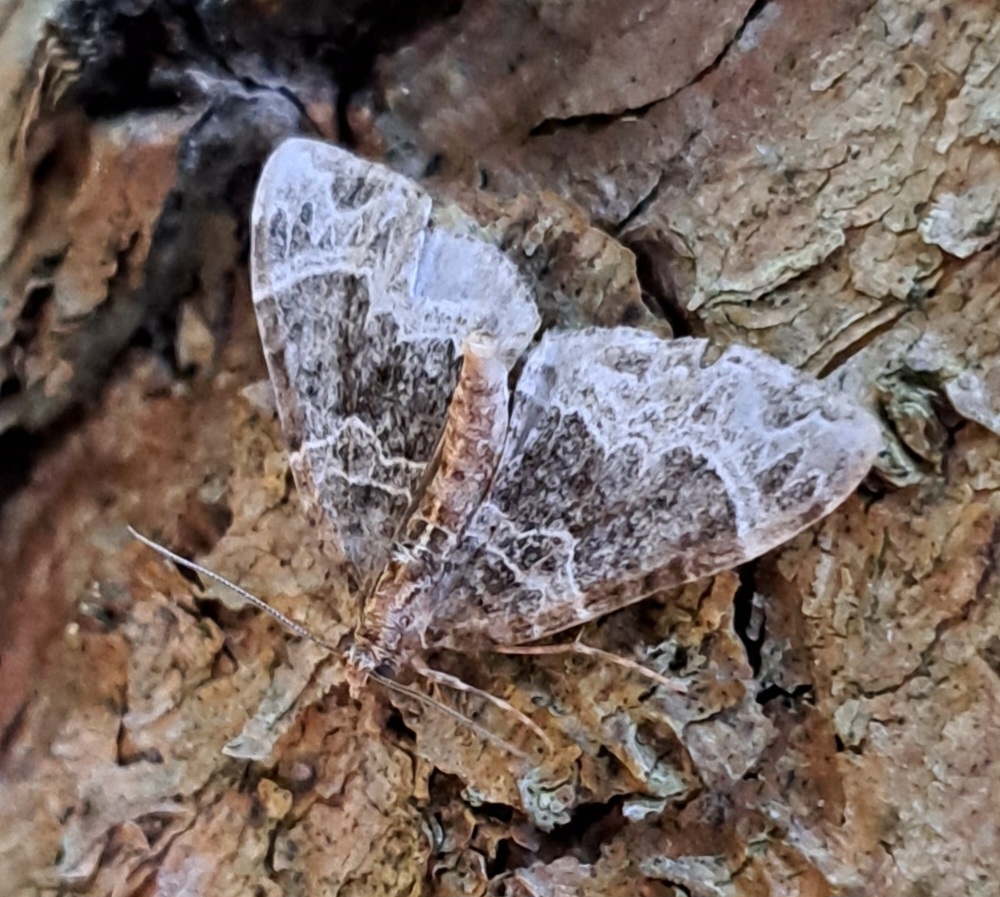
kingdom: Animalia
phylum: Arthropoda
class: Insecta
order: Lepidoptera
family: Geometridae
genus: Ecliptopera
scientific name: Ecliptopera silaceata
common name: Small phoenix
